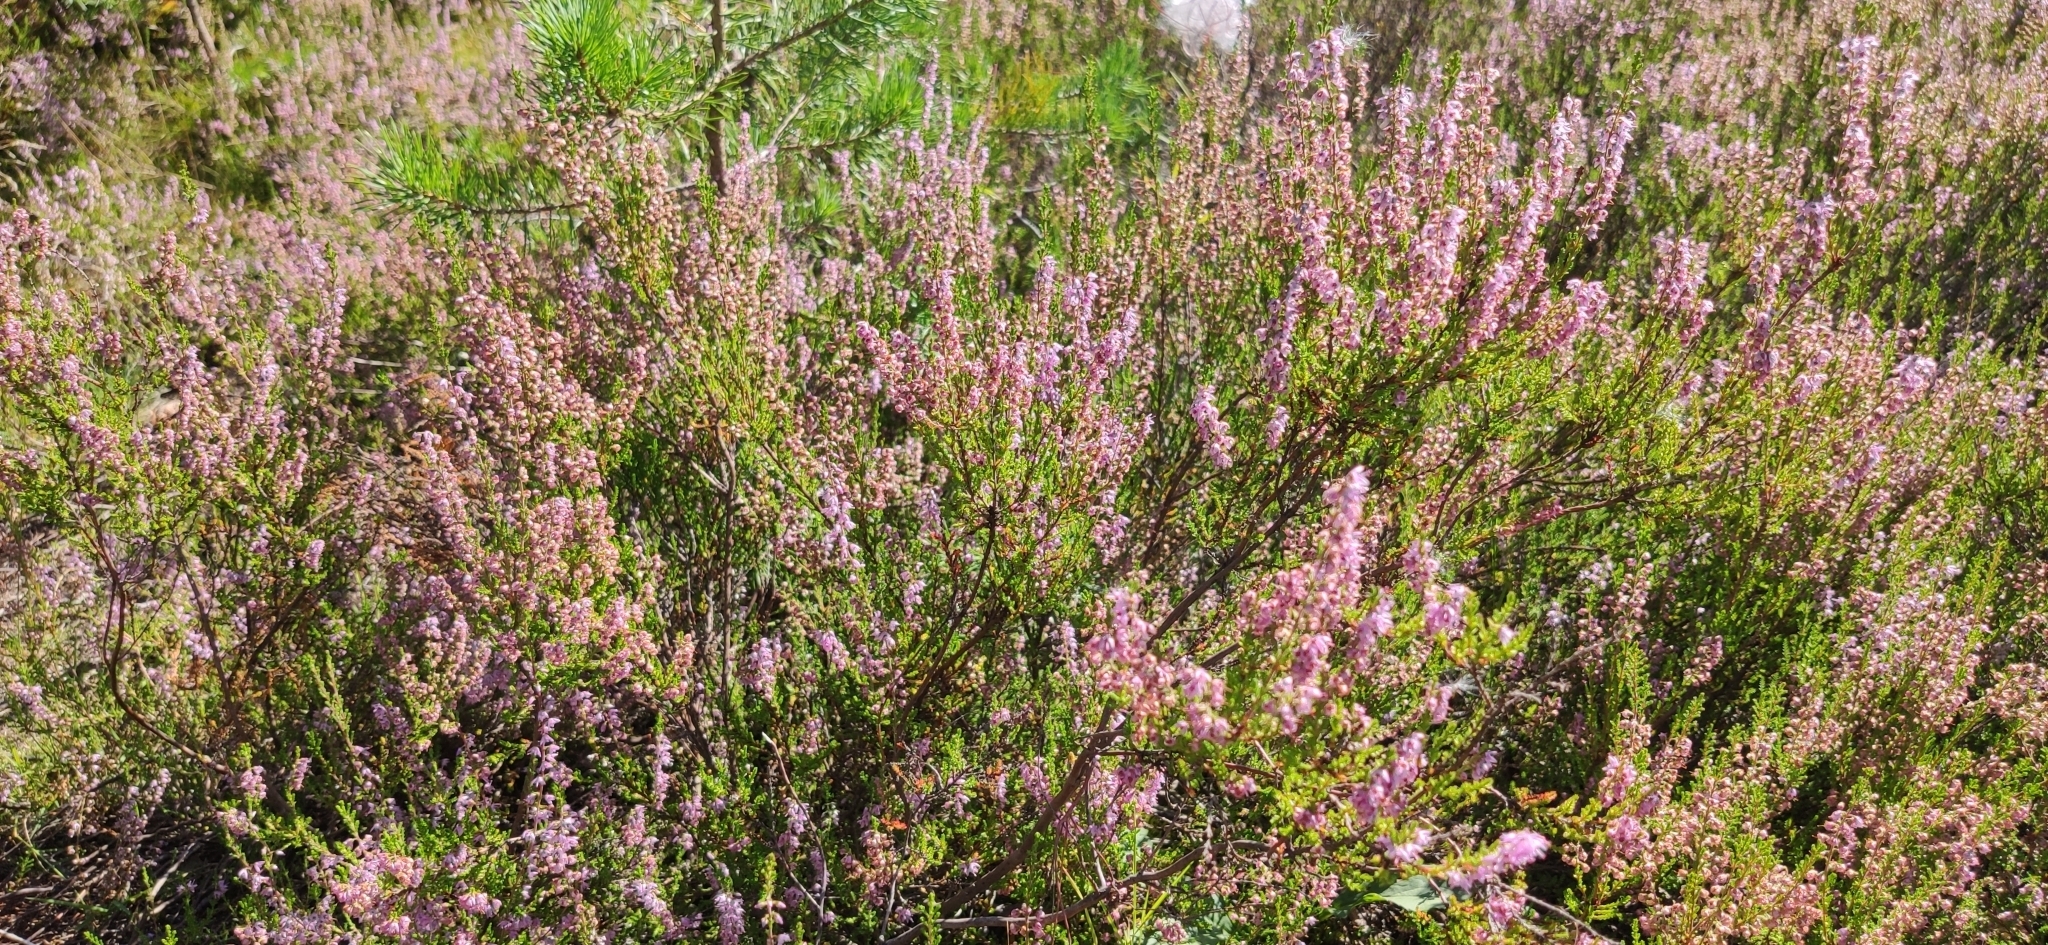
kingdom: Plantae
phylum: Tracheophyta
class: Magnoliopsida
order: Ericales
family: Ericaceae
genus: Calluna
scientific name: Calluna vulgaris
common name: Heather
